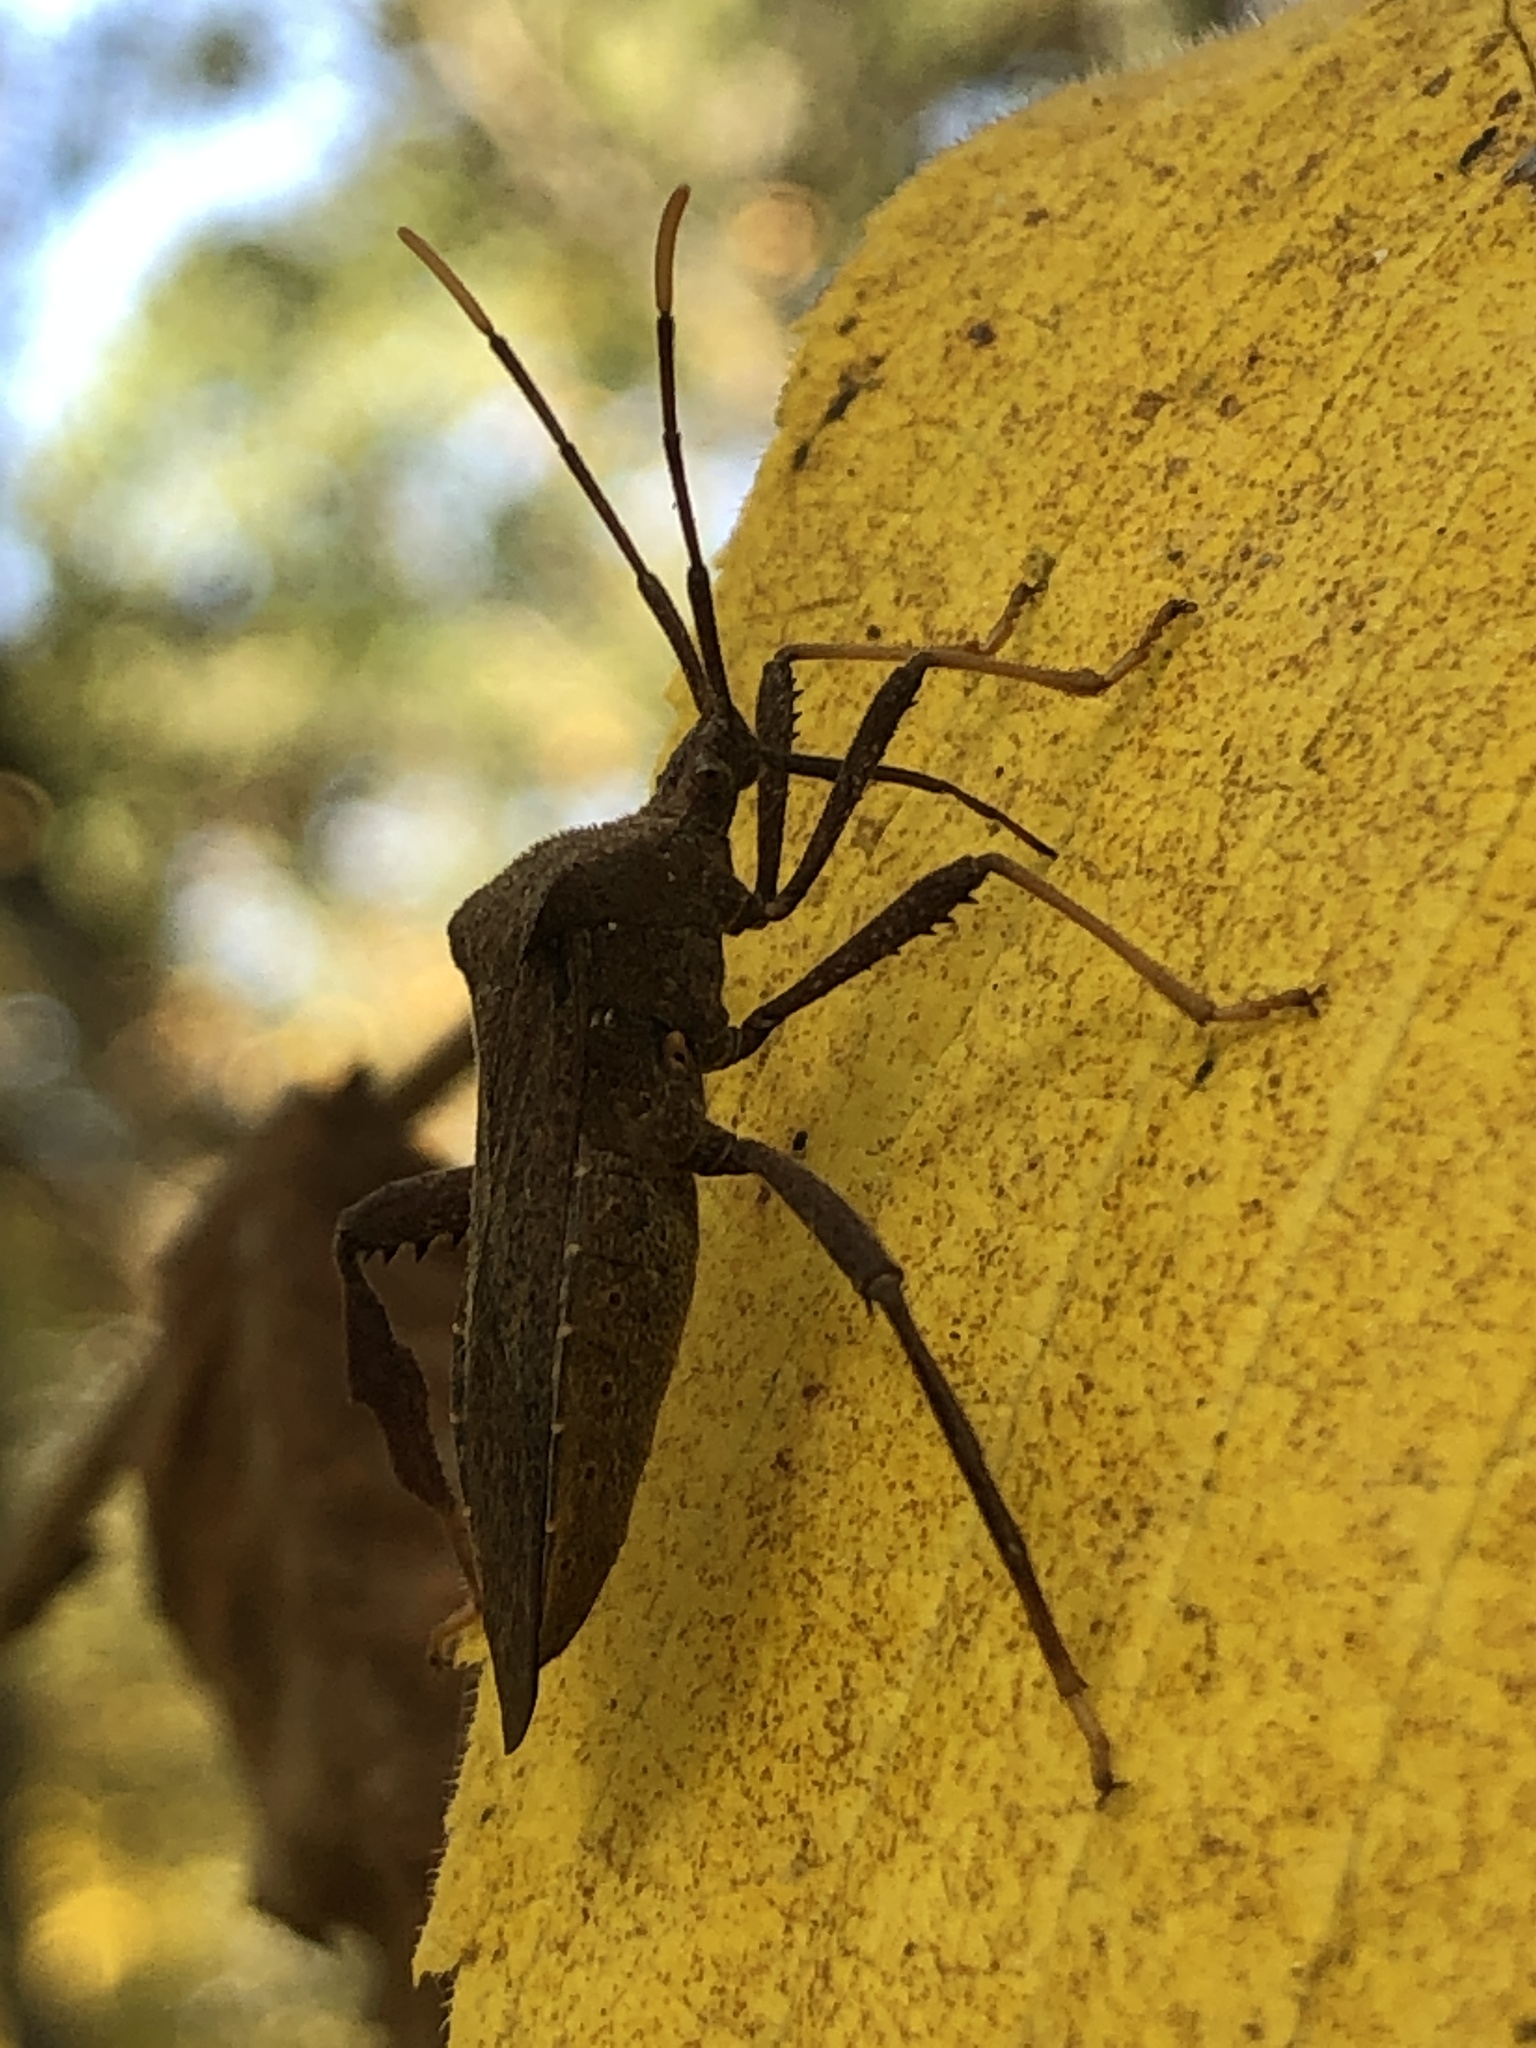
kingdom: Animalia
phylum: Arthropoda
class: Insecta
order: Hemiptera
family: Coreidae
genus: Acanthocephala
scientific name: Acanthocephala terminalis
